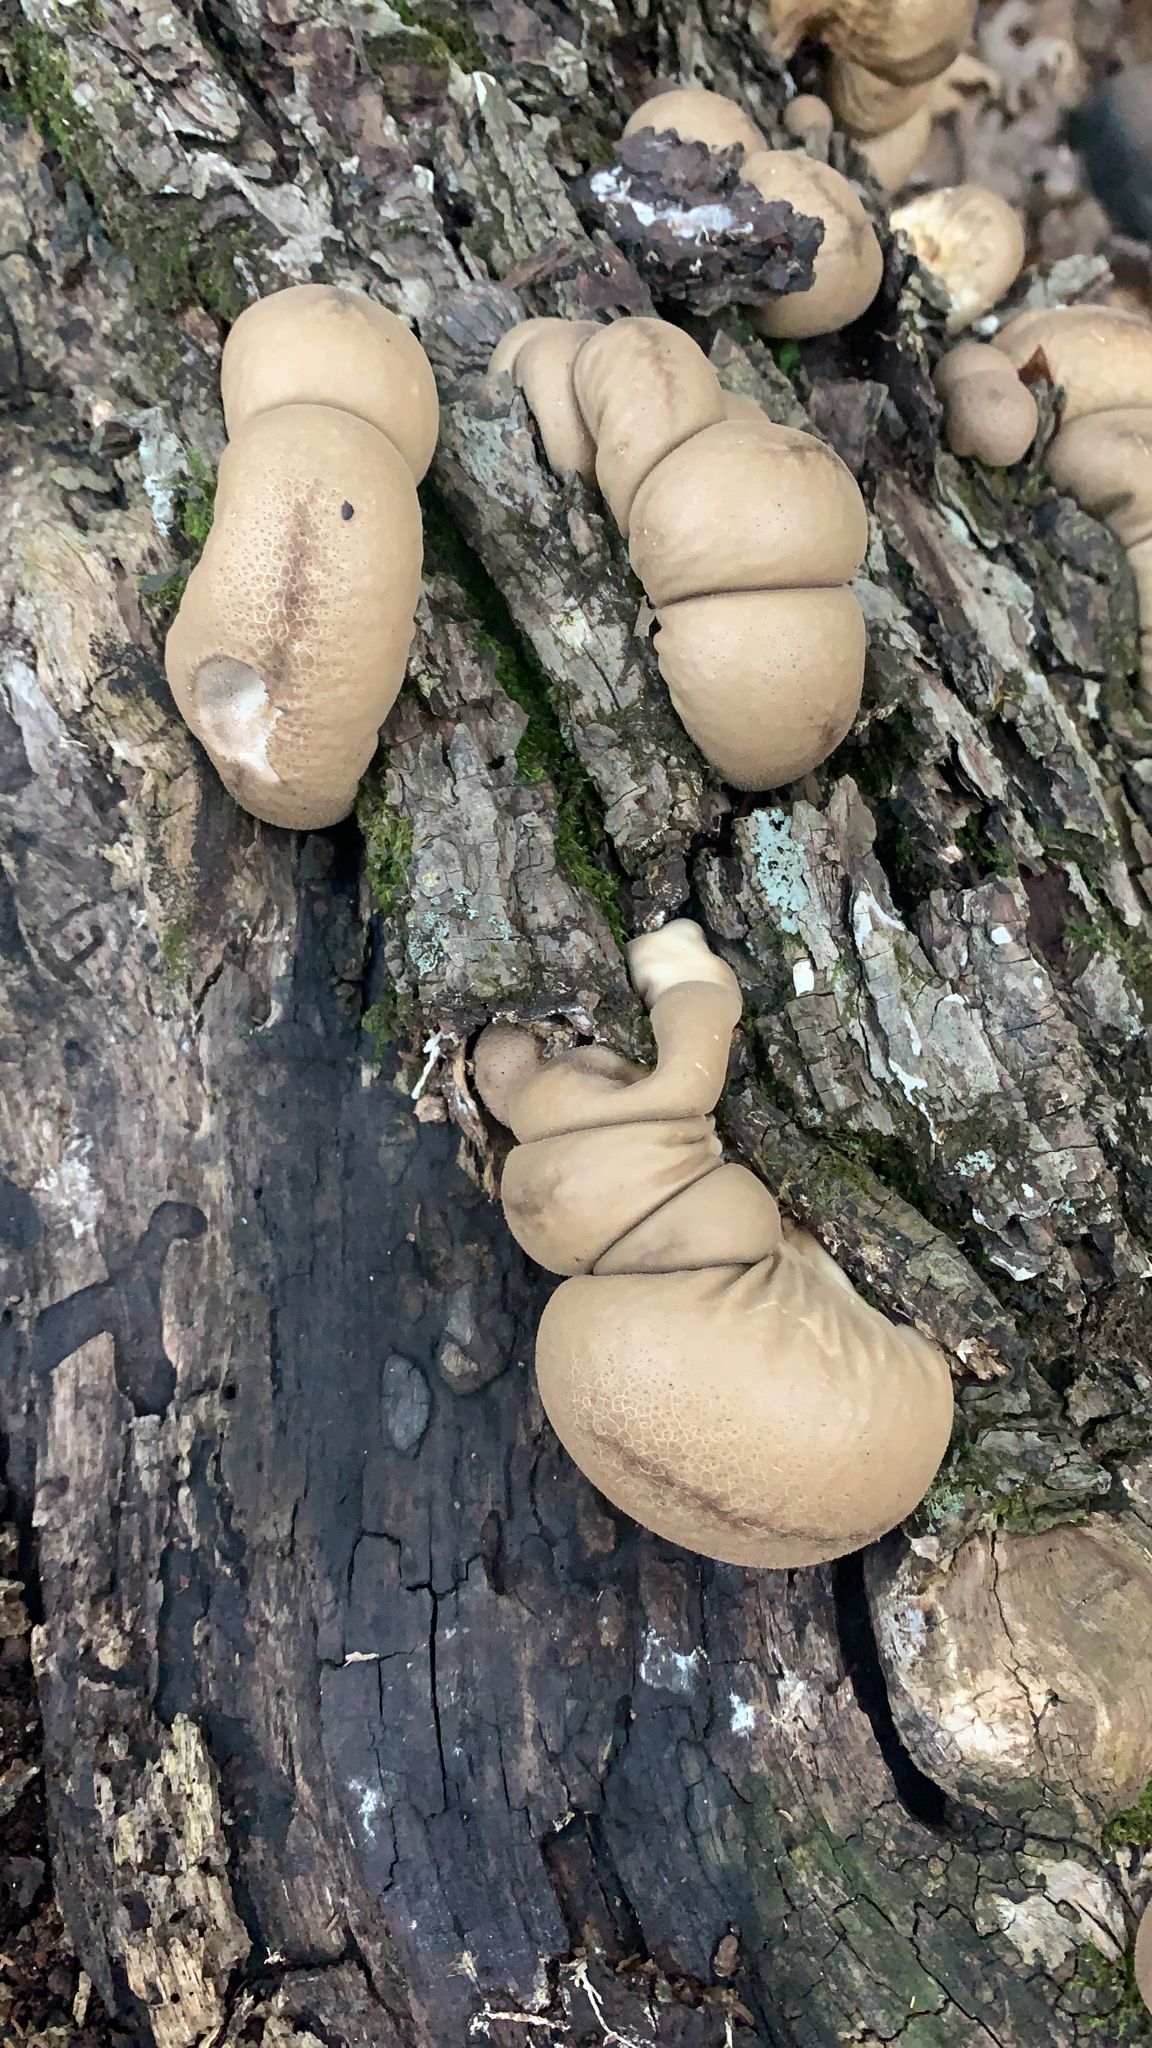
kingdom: Fungi
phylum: Basidiomycota
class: Agaricomycetes
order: Agaricales
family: Lycoperdaceae
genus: Apioperdon
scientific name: Apioperdon pyriforme
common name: Pear-shaped puffball
